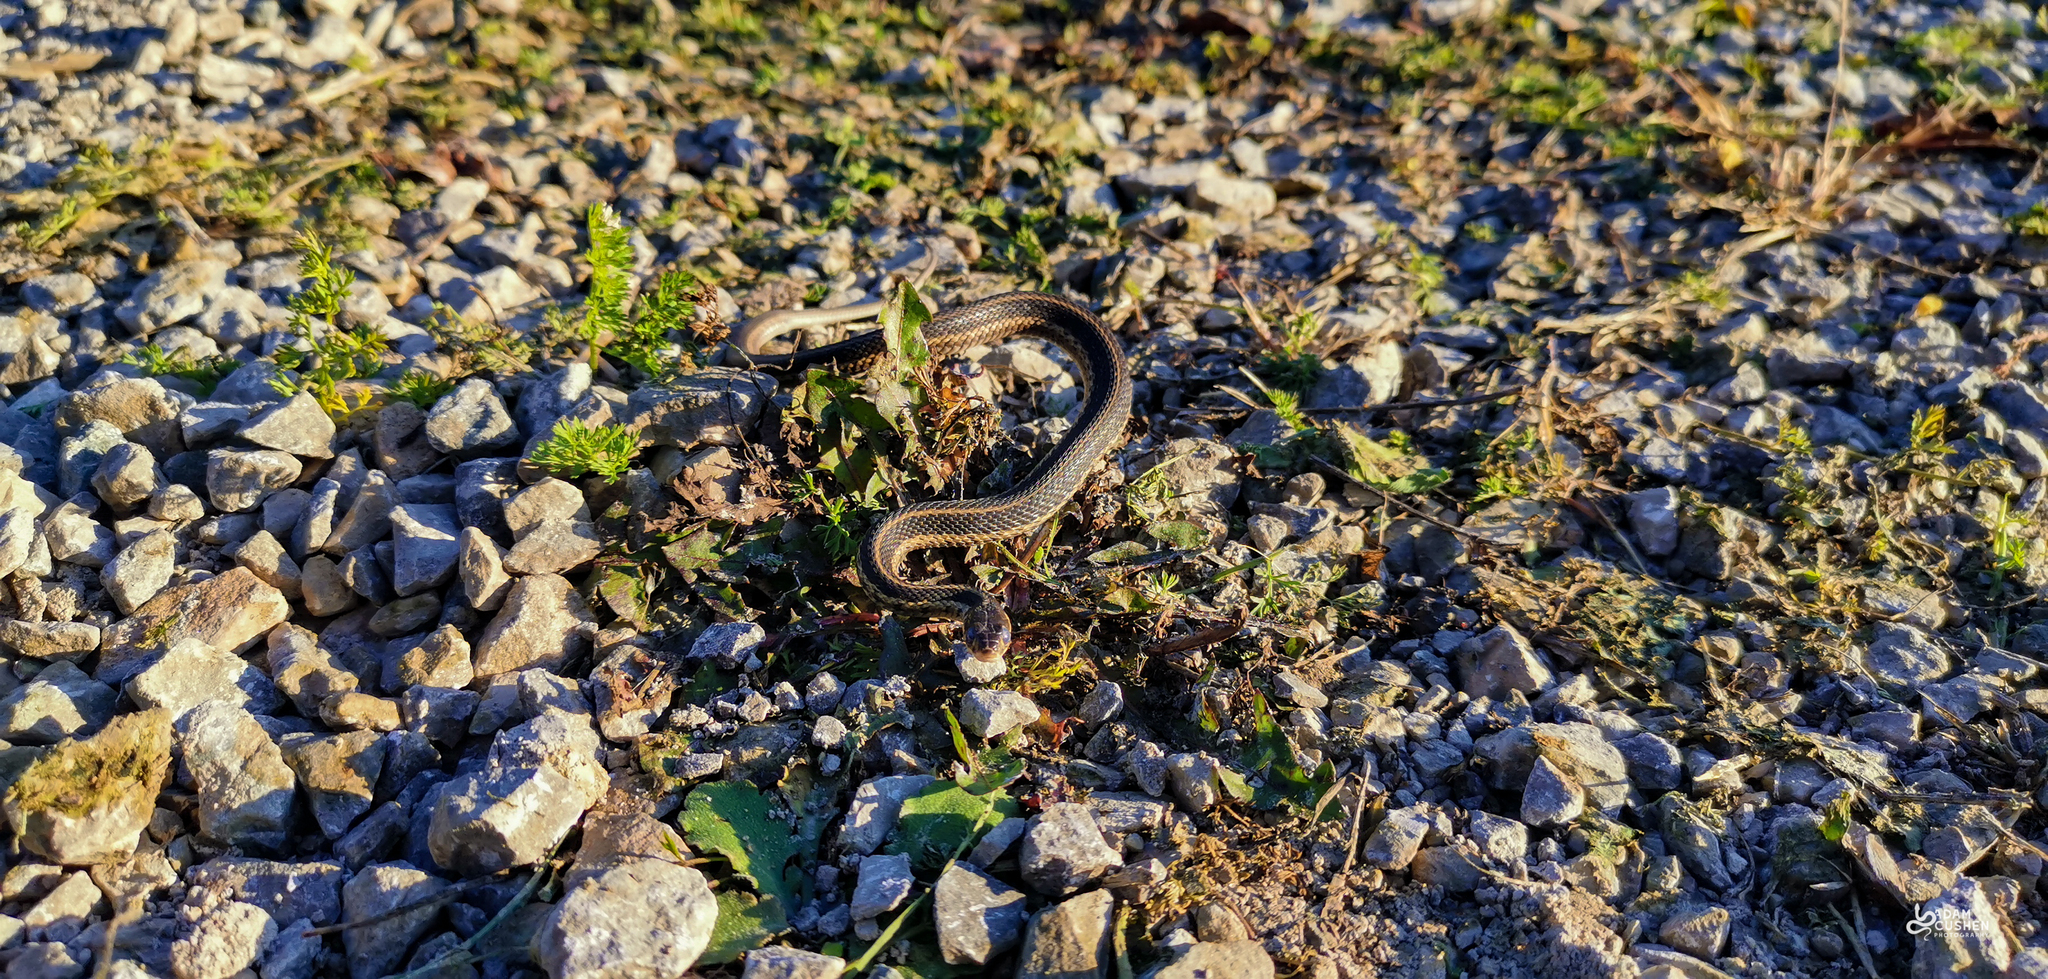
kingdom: Animalia
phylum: Chordata
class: Squamata
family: Colubridae
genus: Thamnophis
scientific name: Thamnophis sirtalis
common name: Common garter snake
